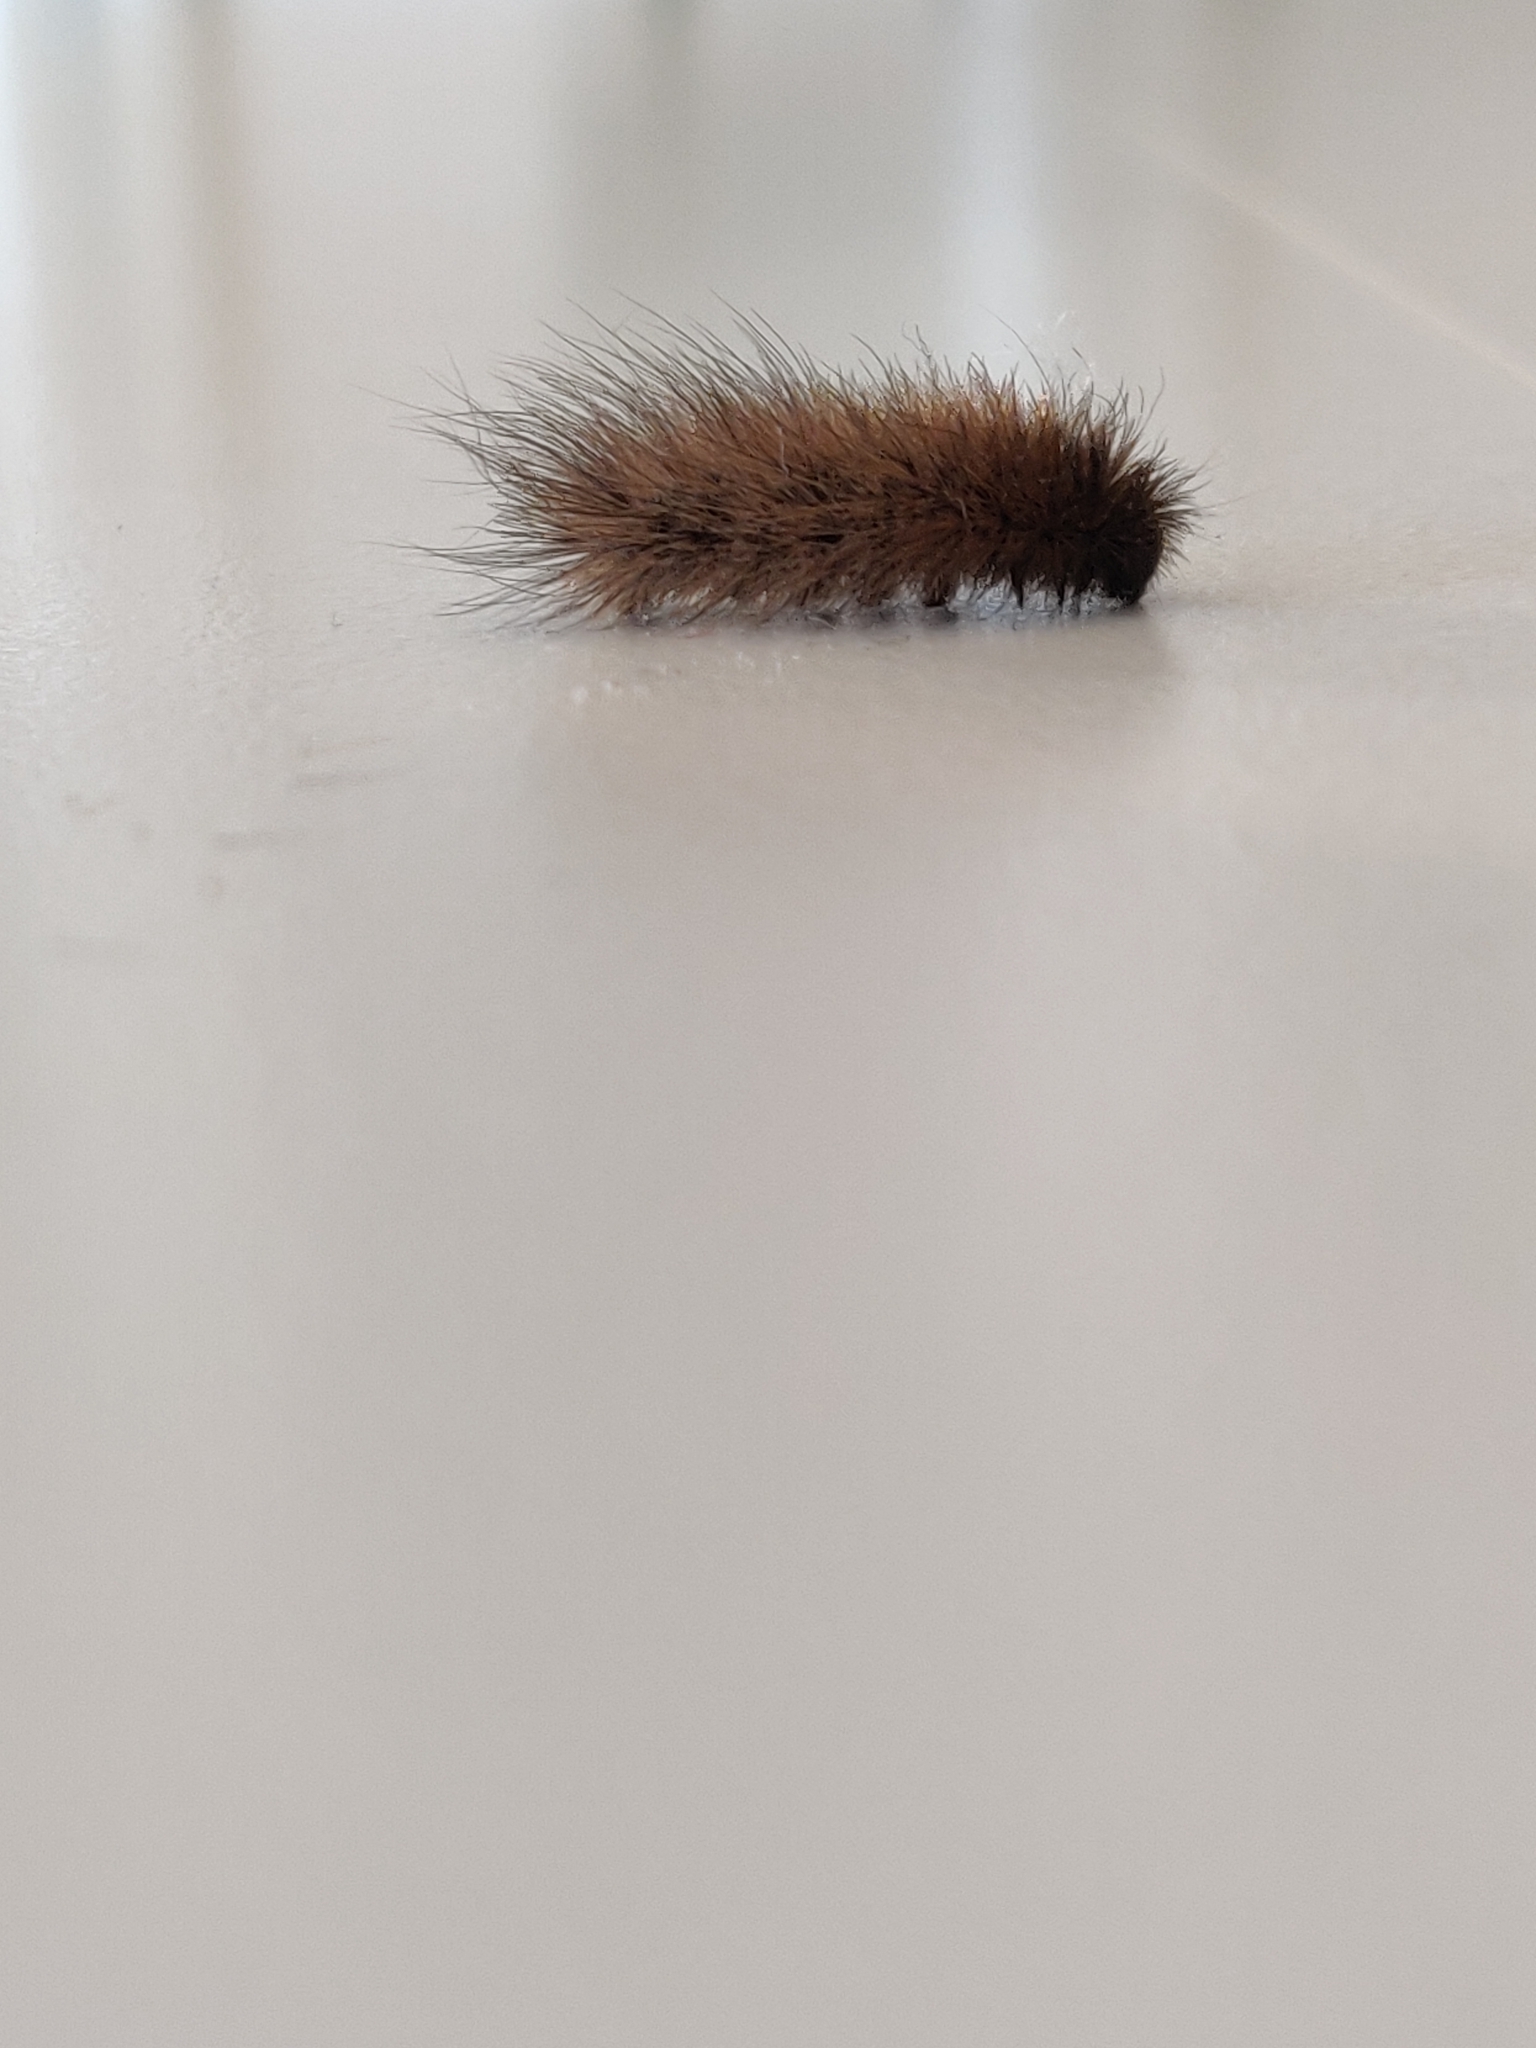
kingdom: Animalia
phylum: Arthropoda
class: Insecta
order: Lepidoptera
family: Erebidae
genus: Phragmatobia
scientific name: Phragmatobia fuliginosa
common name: Ruby tiger
